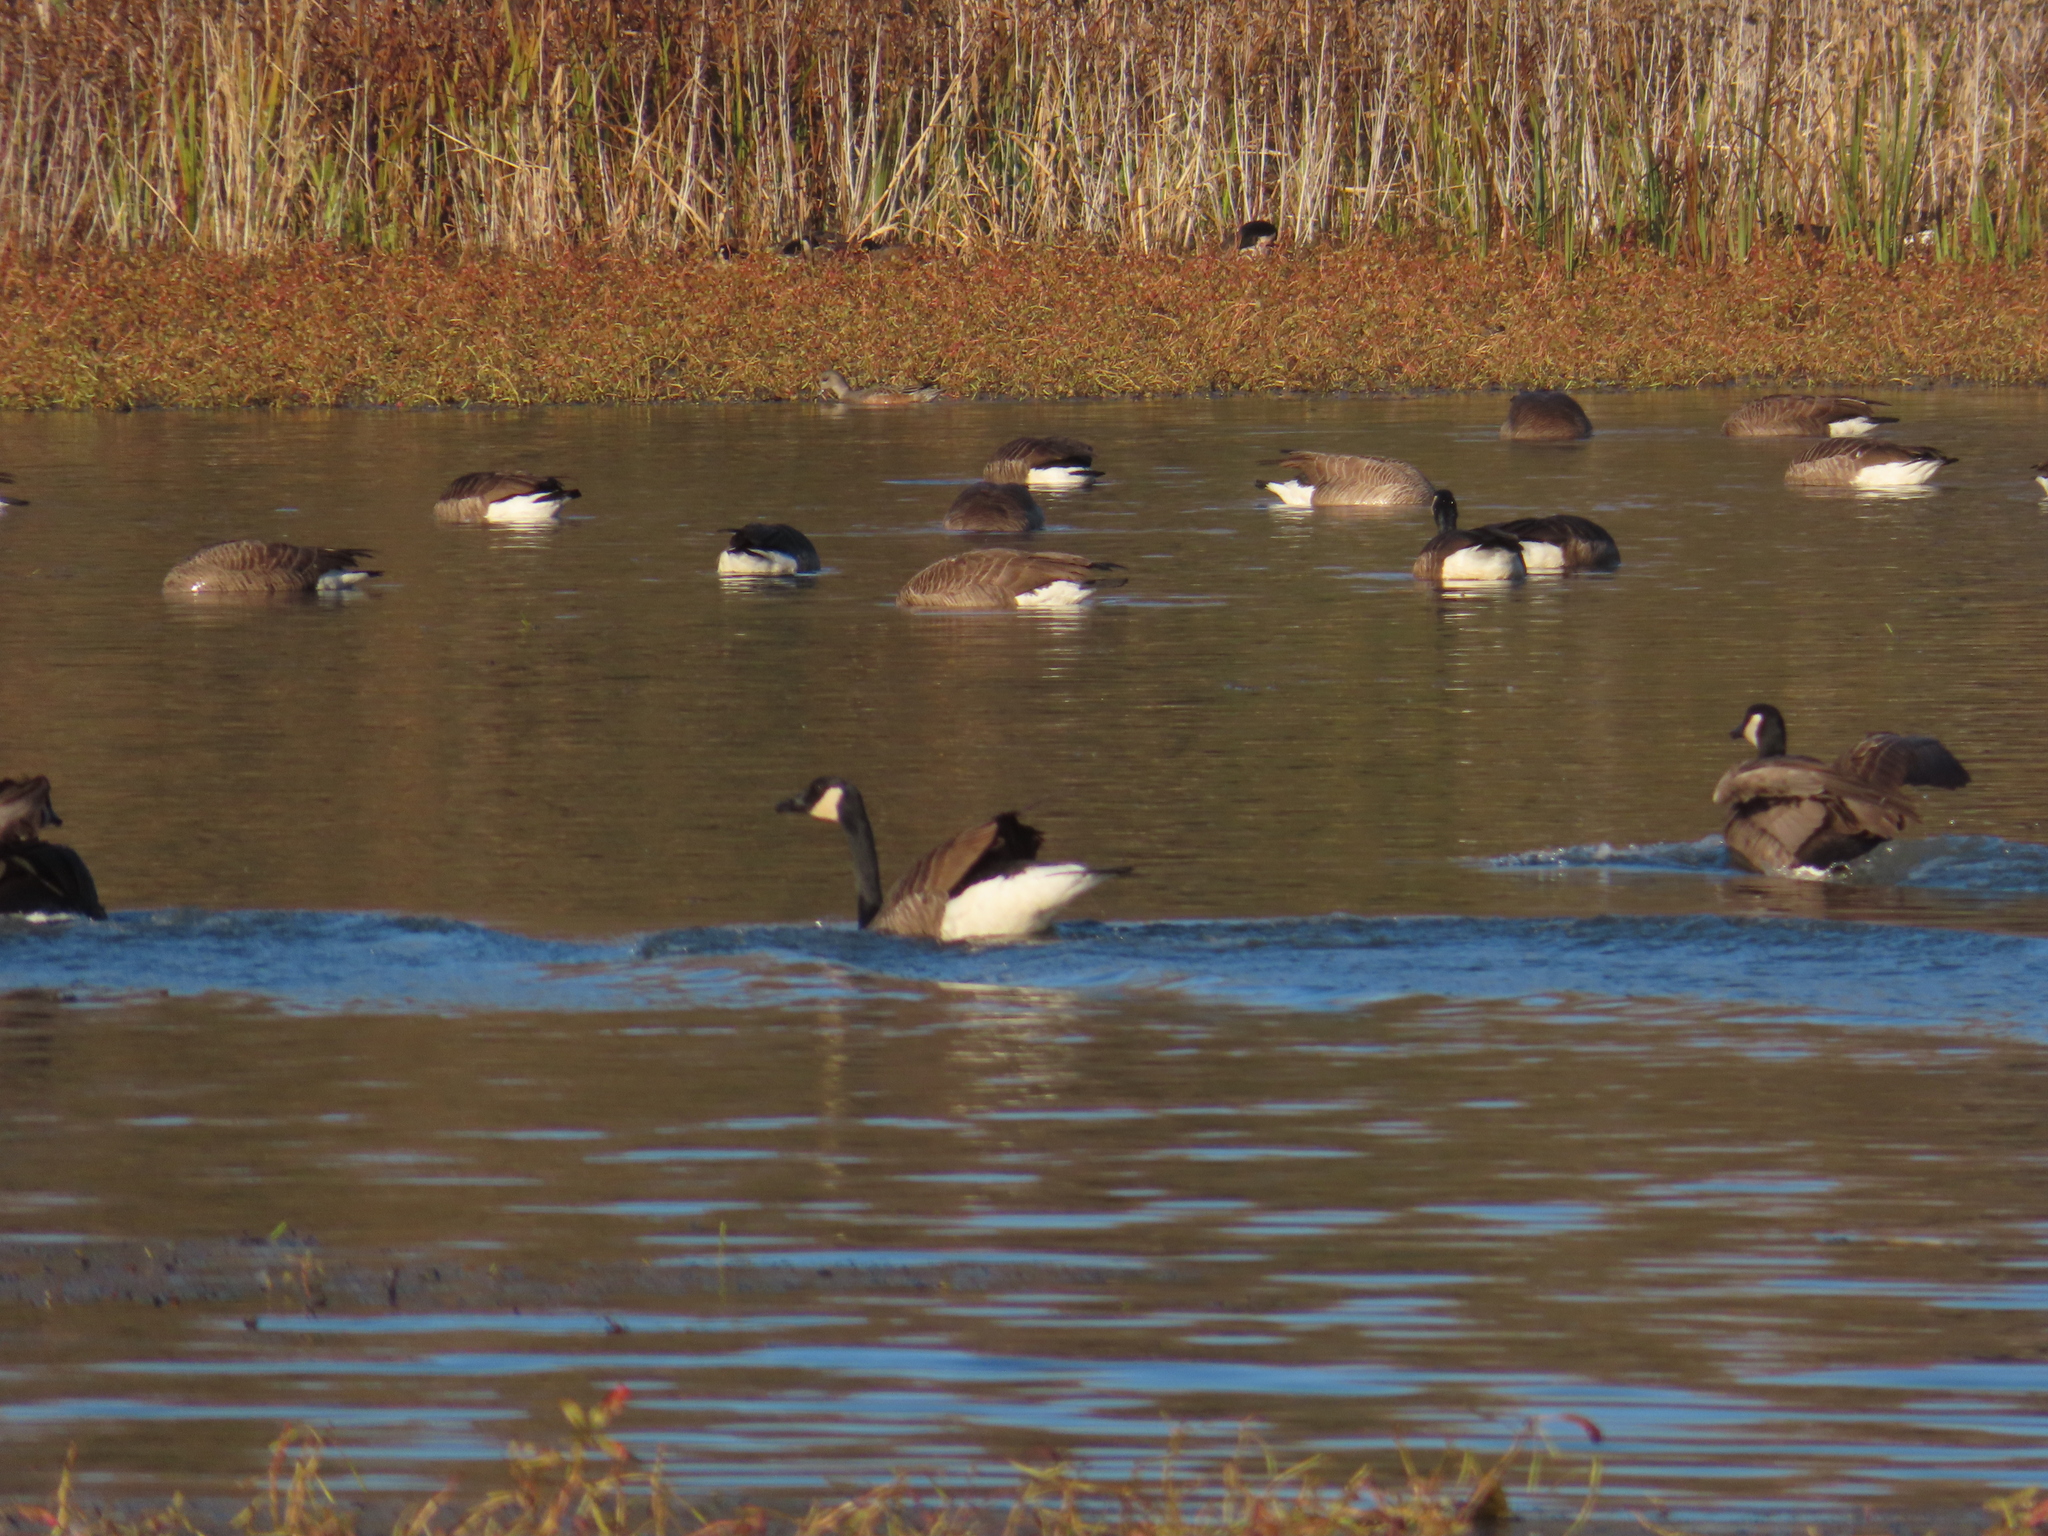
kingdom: Animalia
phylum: Chordata
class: Aves
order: Anseriformes
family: Anatidae
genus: Branta
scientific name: Branta canadensis
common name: Canada goose
